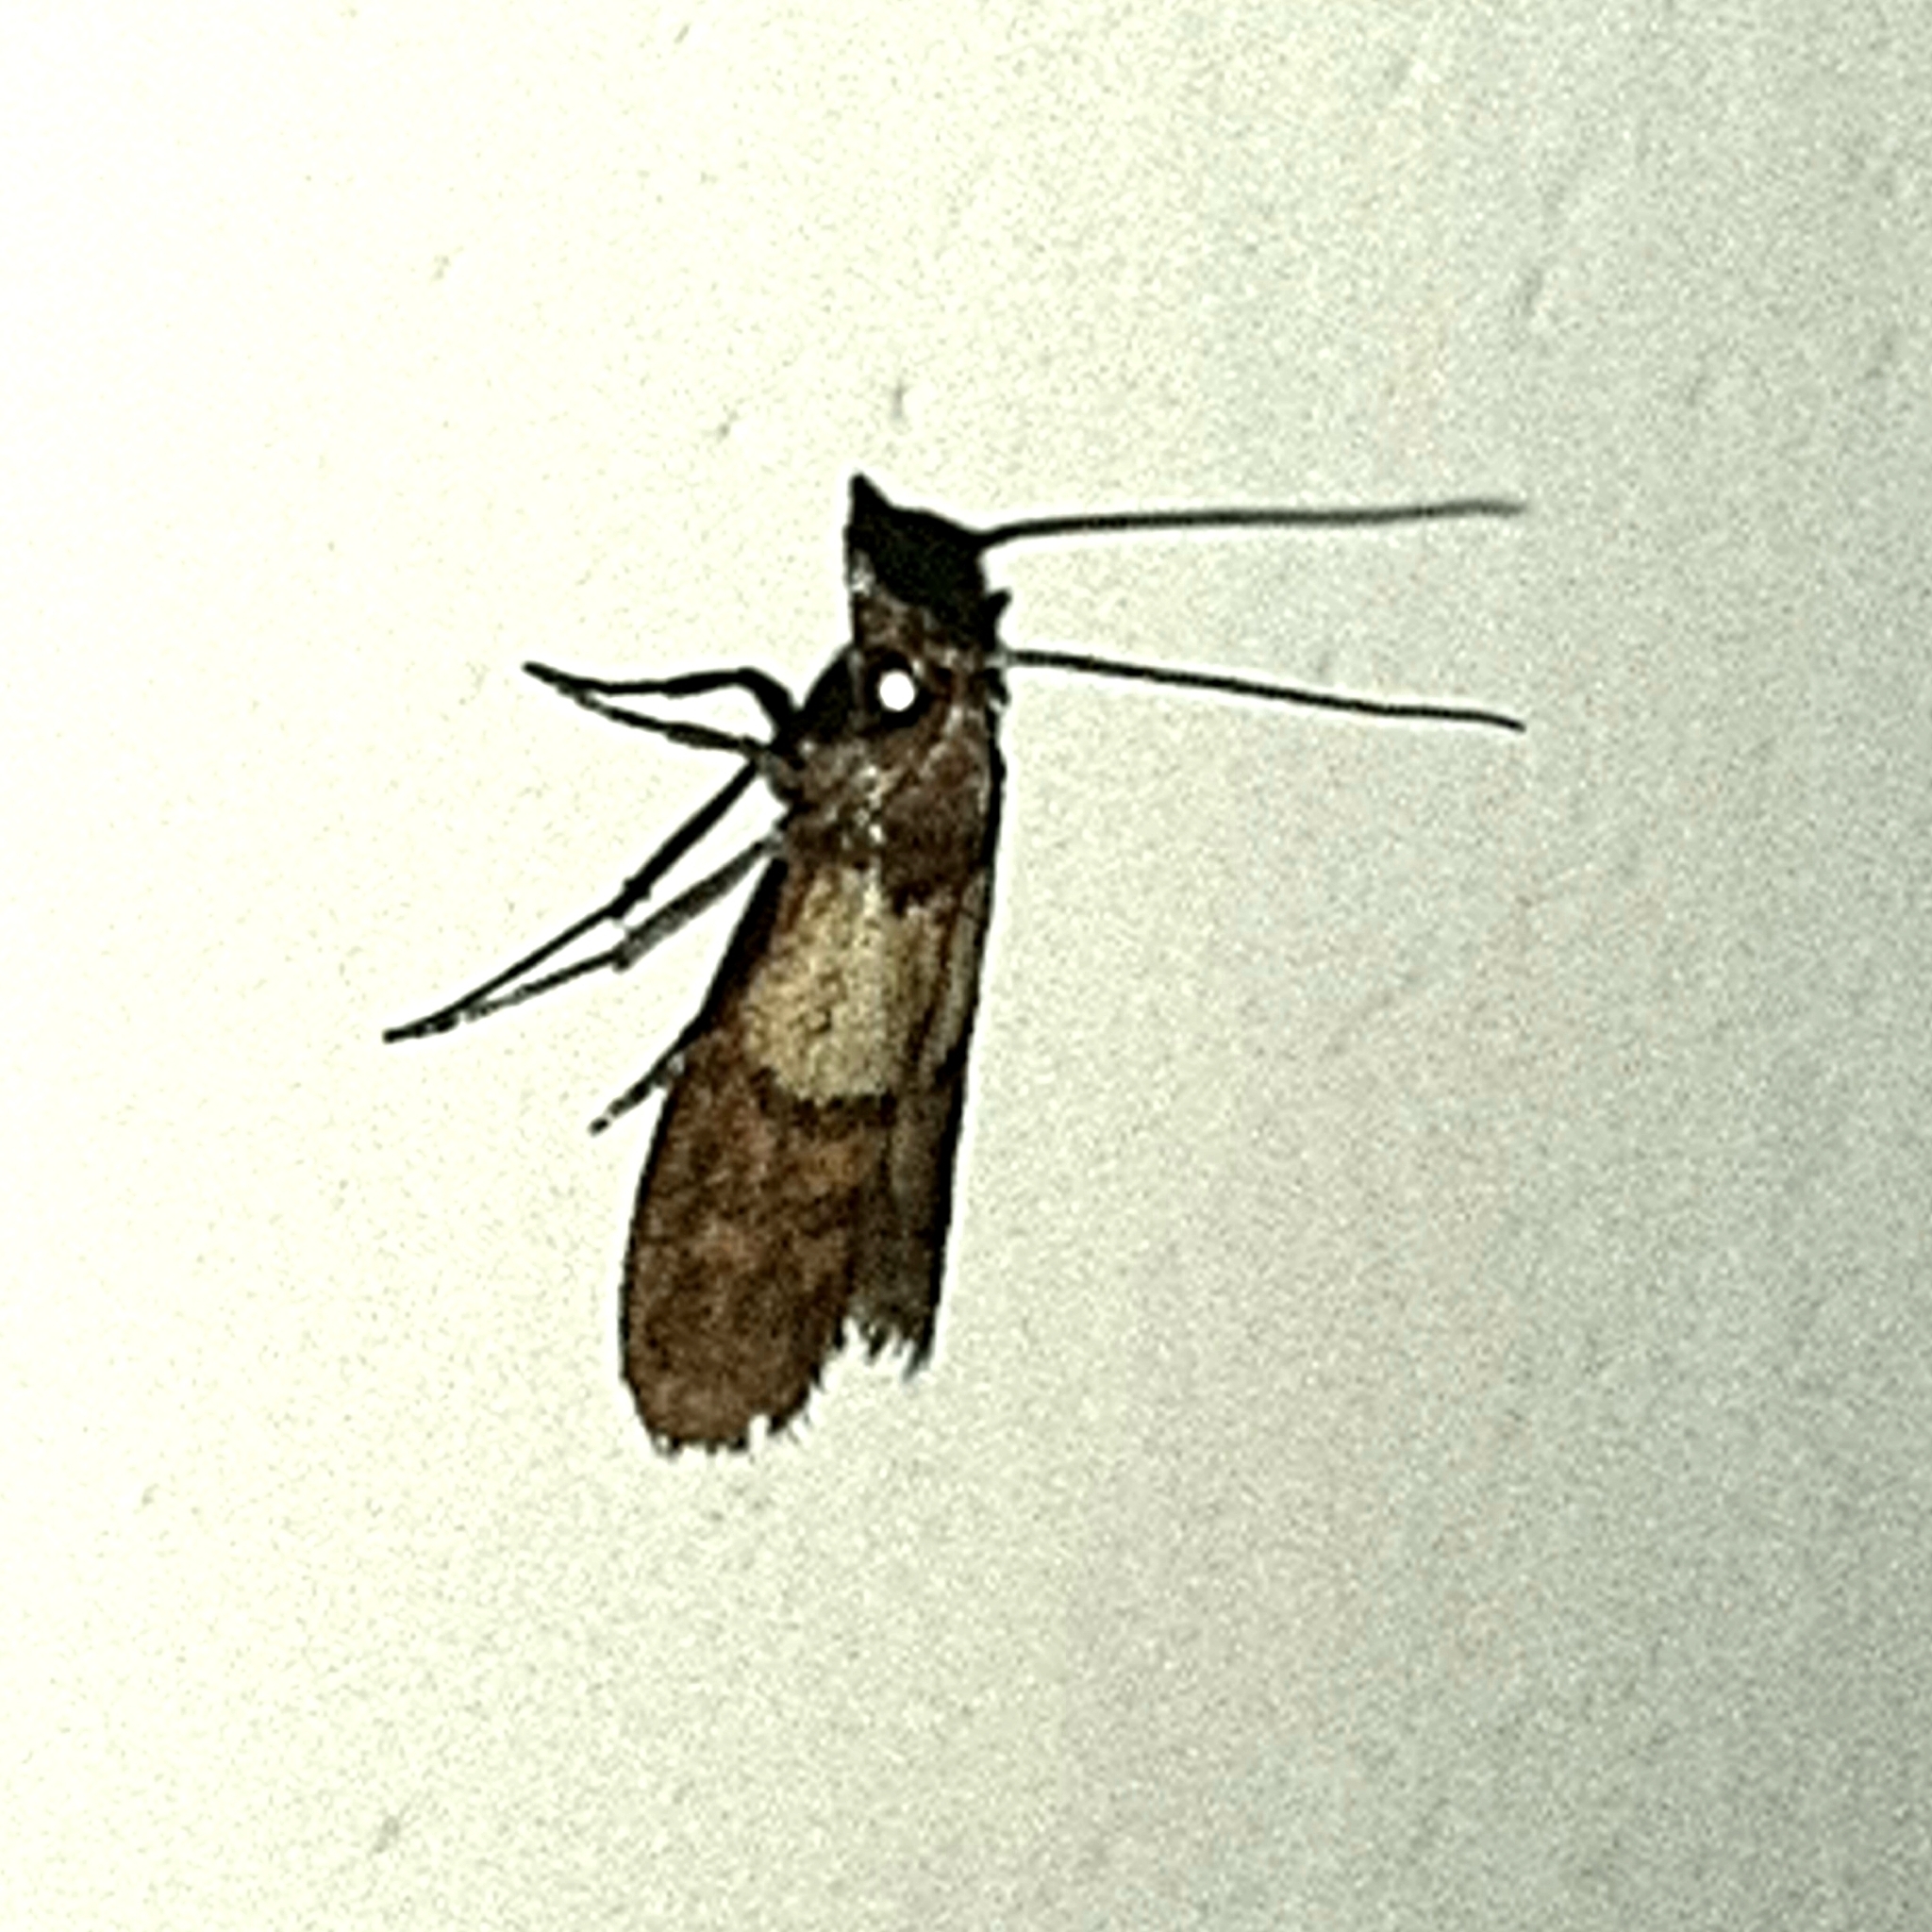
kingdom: Animalia
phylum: Arthropoda
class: Insecta
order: Lepidoptera
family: Pyralidae
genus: Plodia
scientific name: Plodia interpunctella
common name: Indian meal moth
